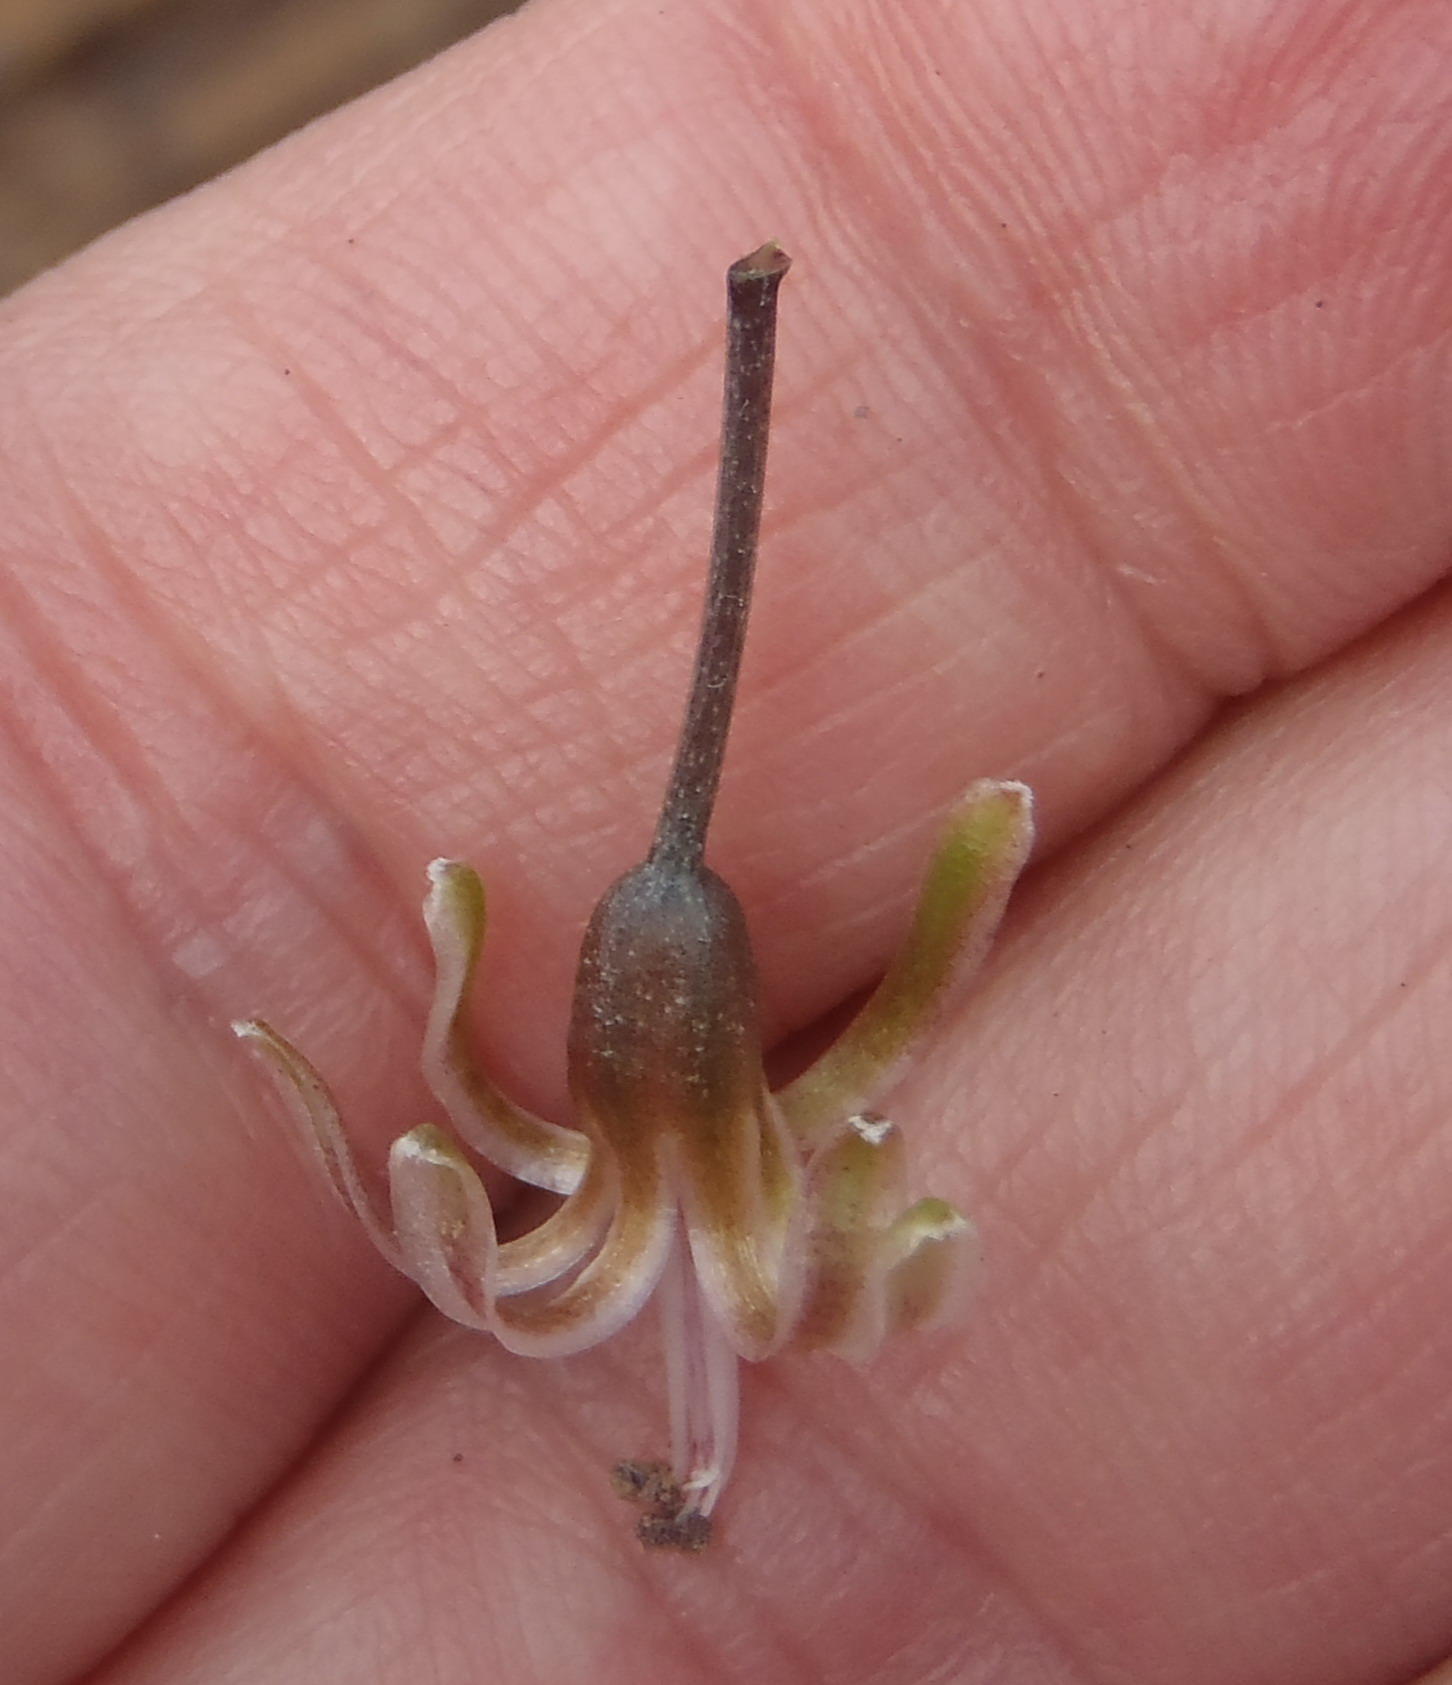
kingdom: Plantae
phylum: Tracheophyta
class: Liliopsida
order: Asparagales
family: Asparagaceae
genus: Drimia
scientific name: Drimia media
